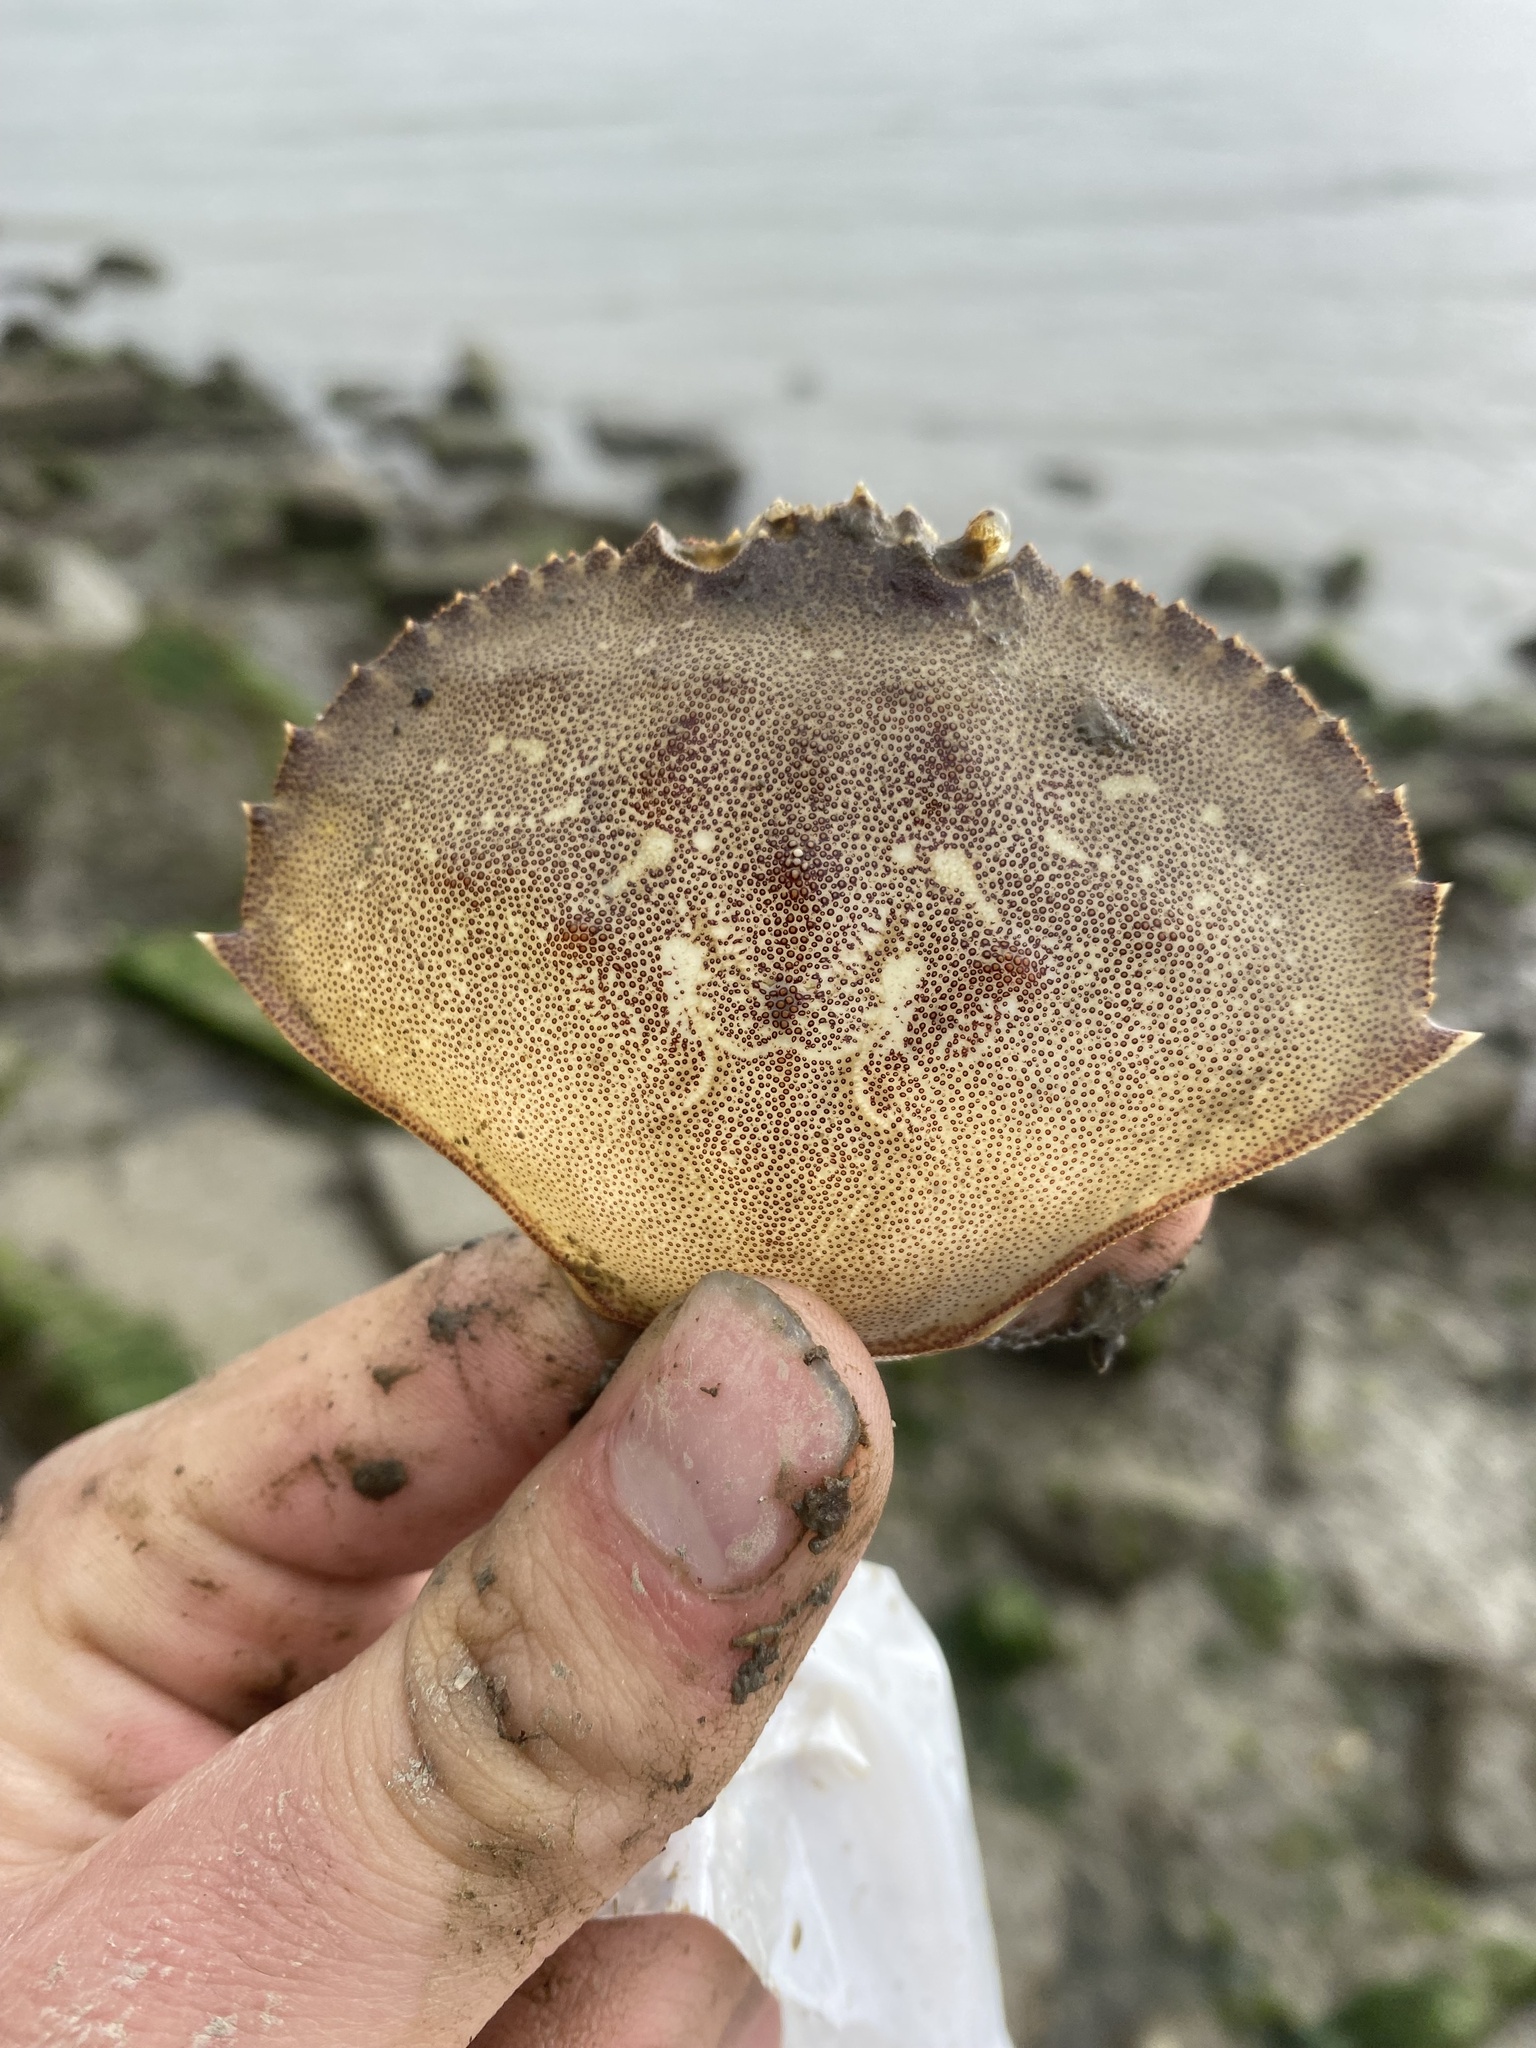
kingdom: Animalia
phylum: Arthropoda
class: Malacostraca
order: Decapoda
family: Cancridae
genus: Metacarcinus
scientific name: Metacarcinus magister
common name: Californian crab
